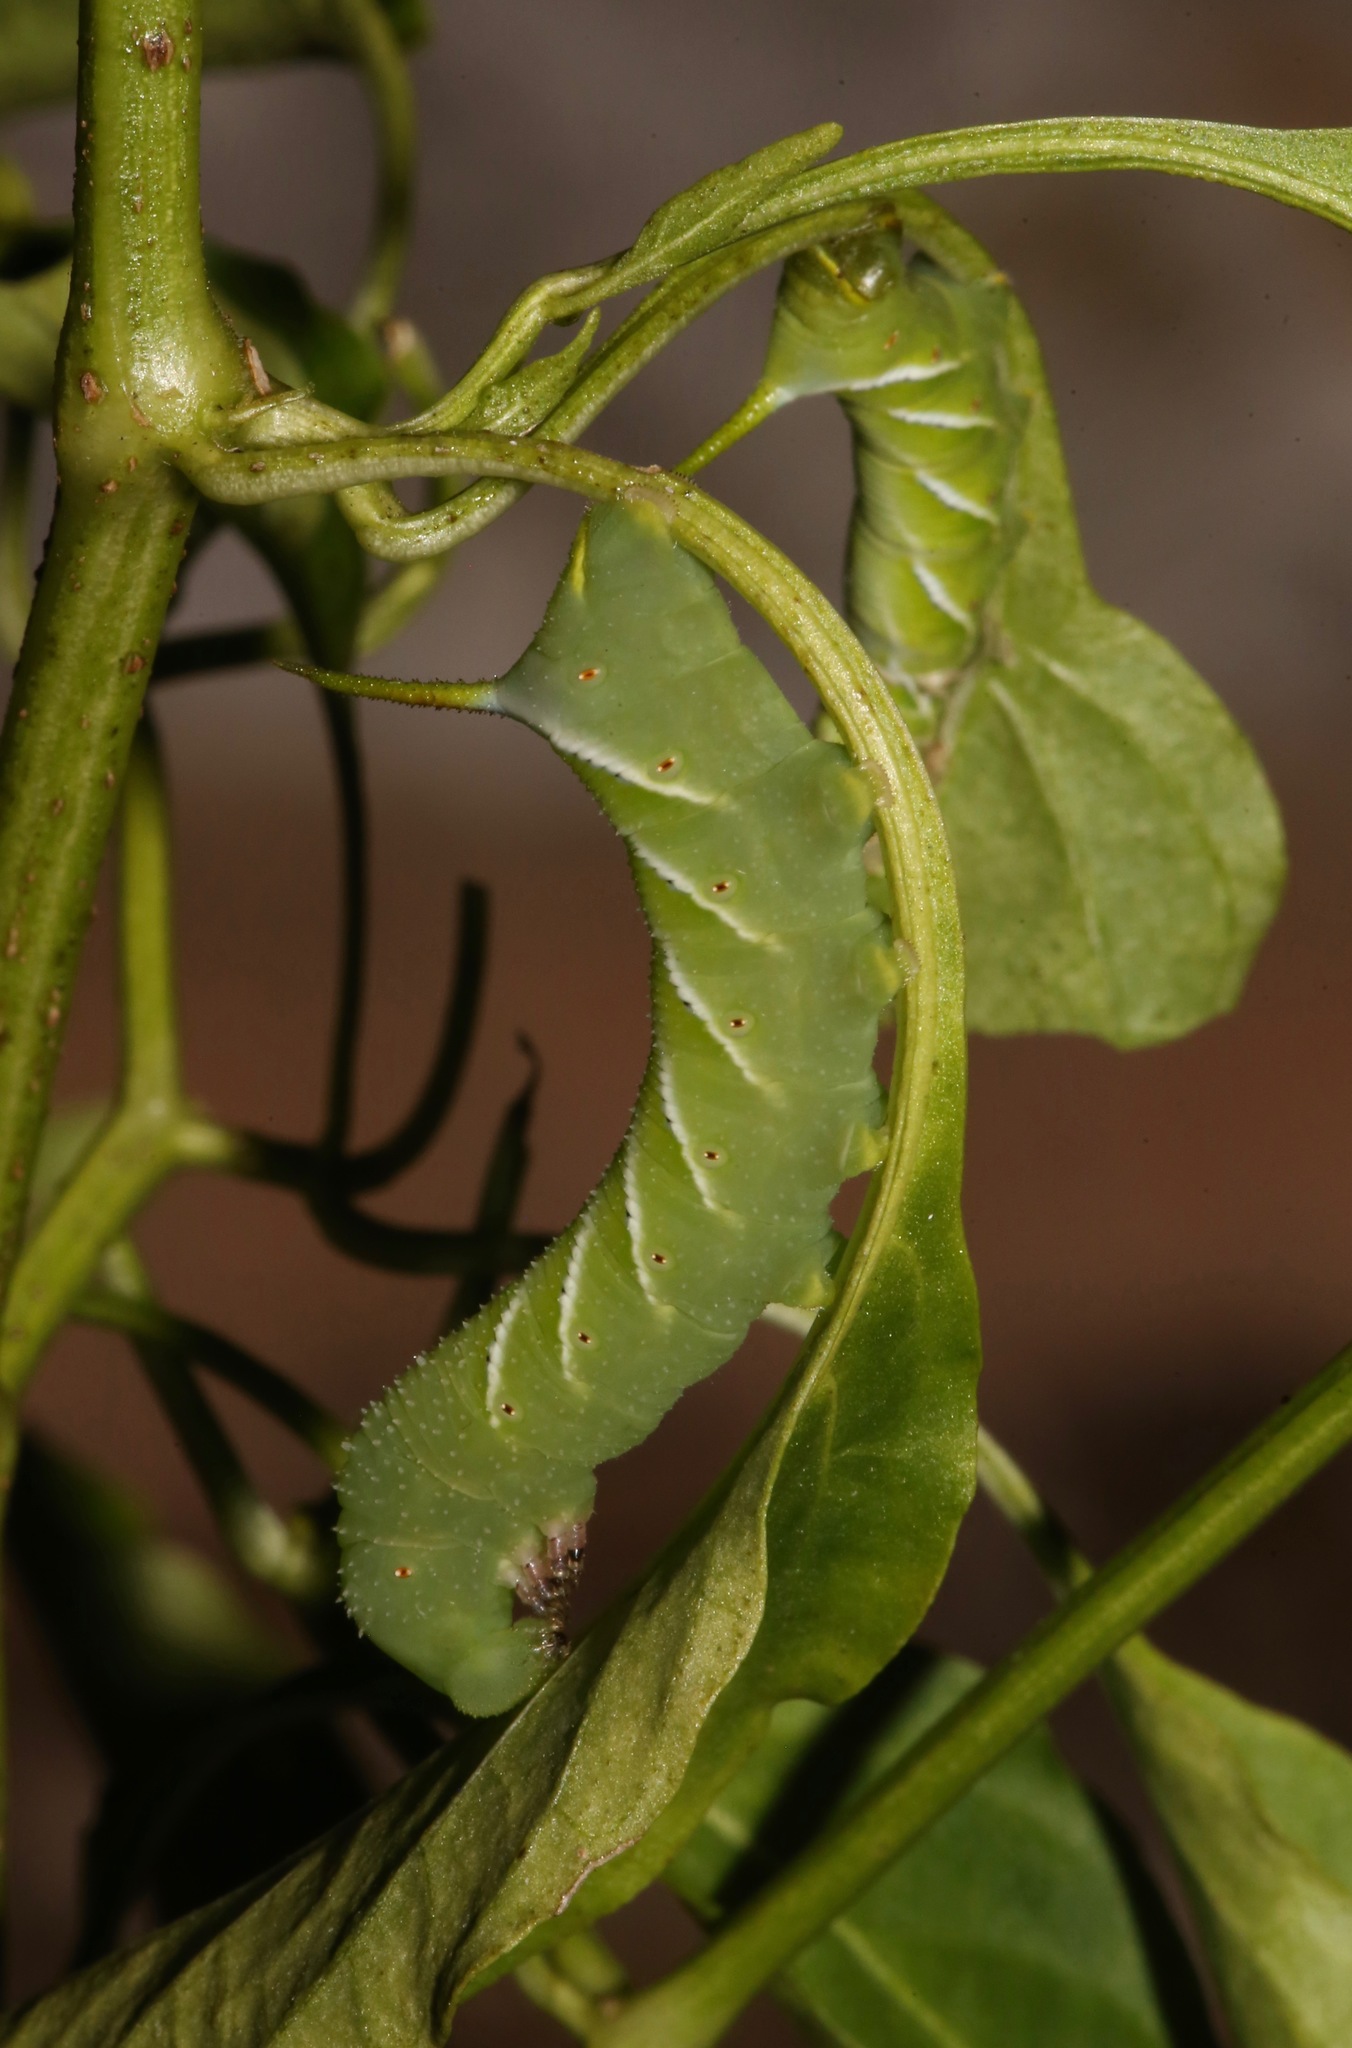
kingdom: Animalia
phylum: Arthropoda
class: Insecta
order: Lepidoptera
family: Sphingidae
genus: Manduca
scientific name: Manduca sexta
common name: Carolina sphinx
